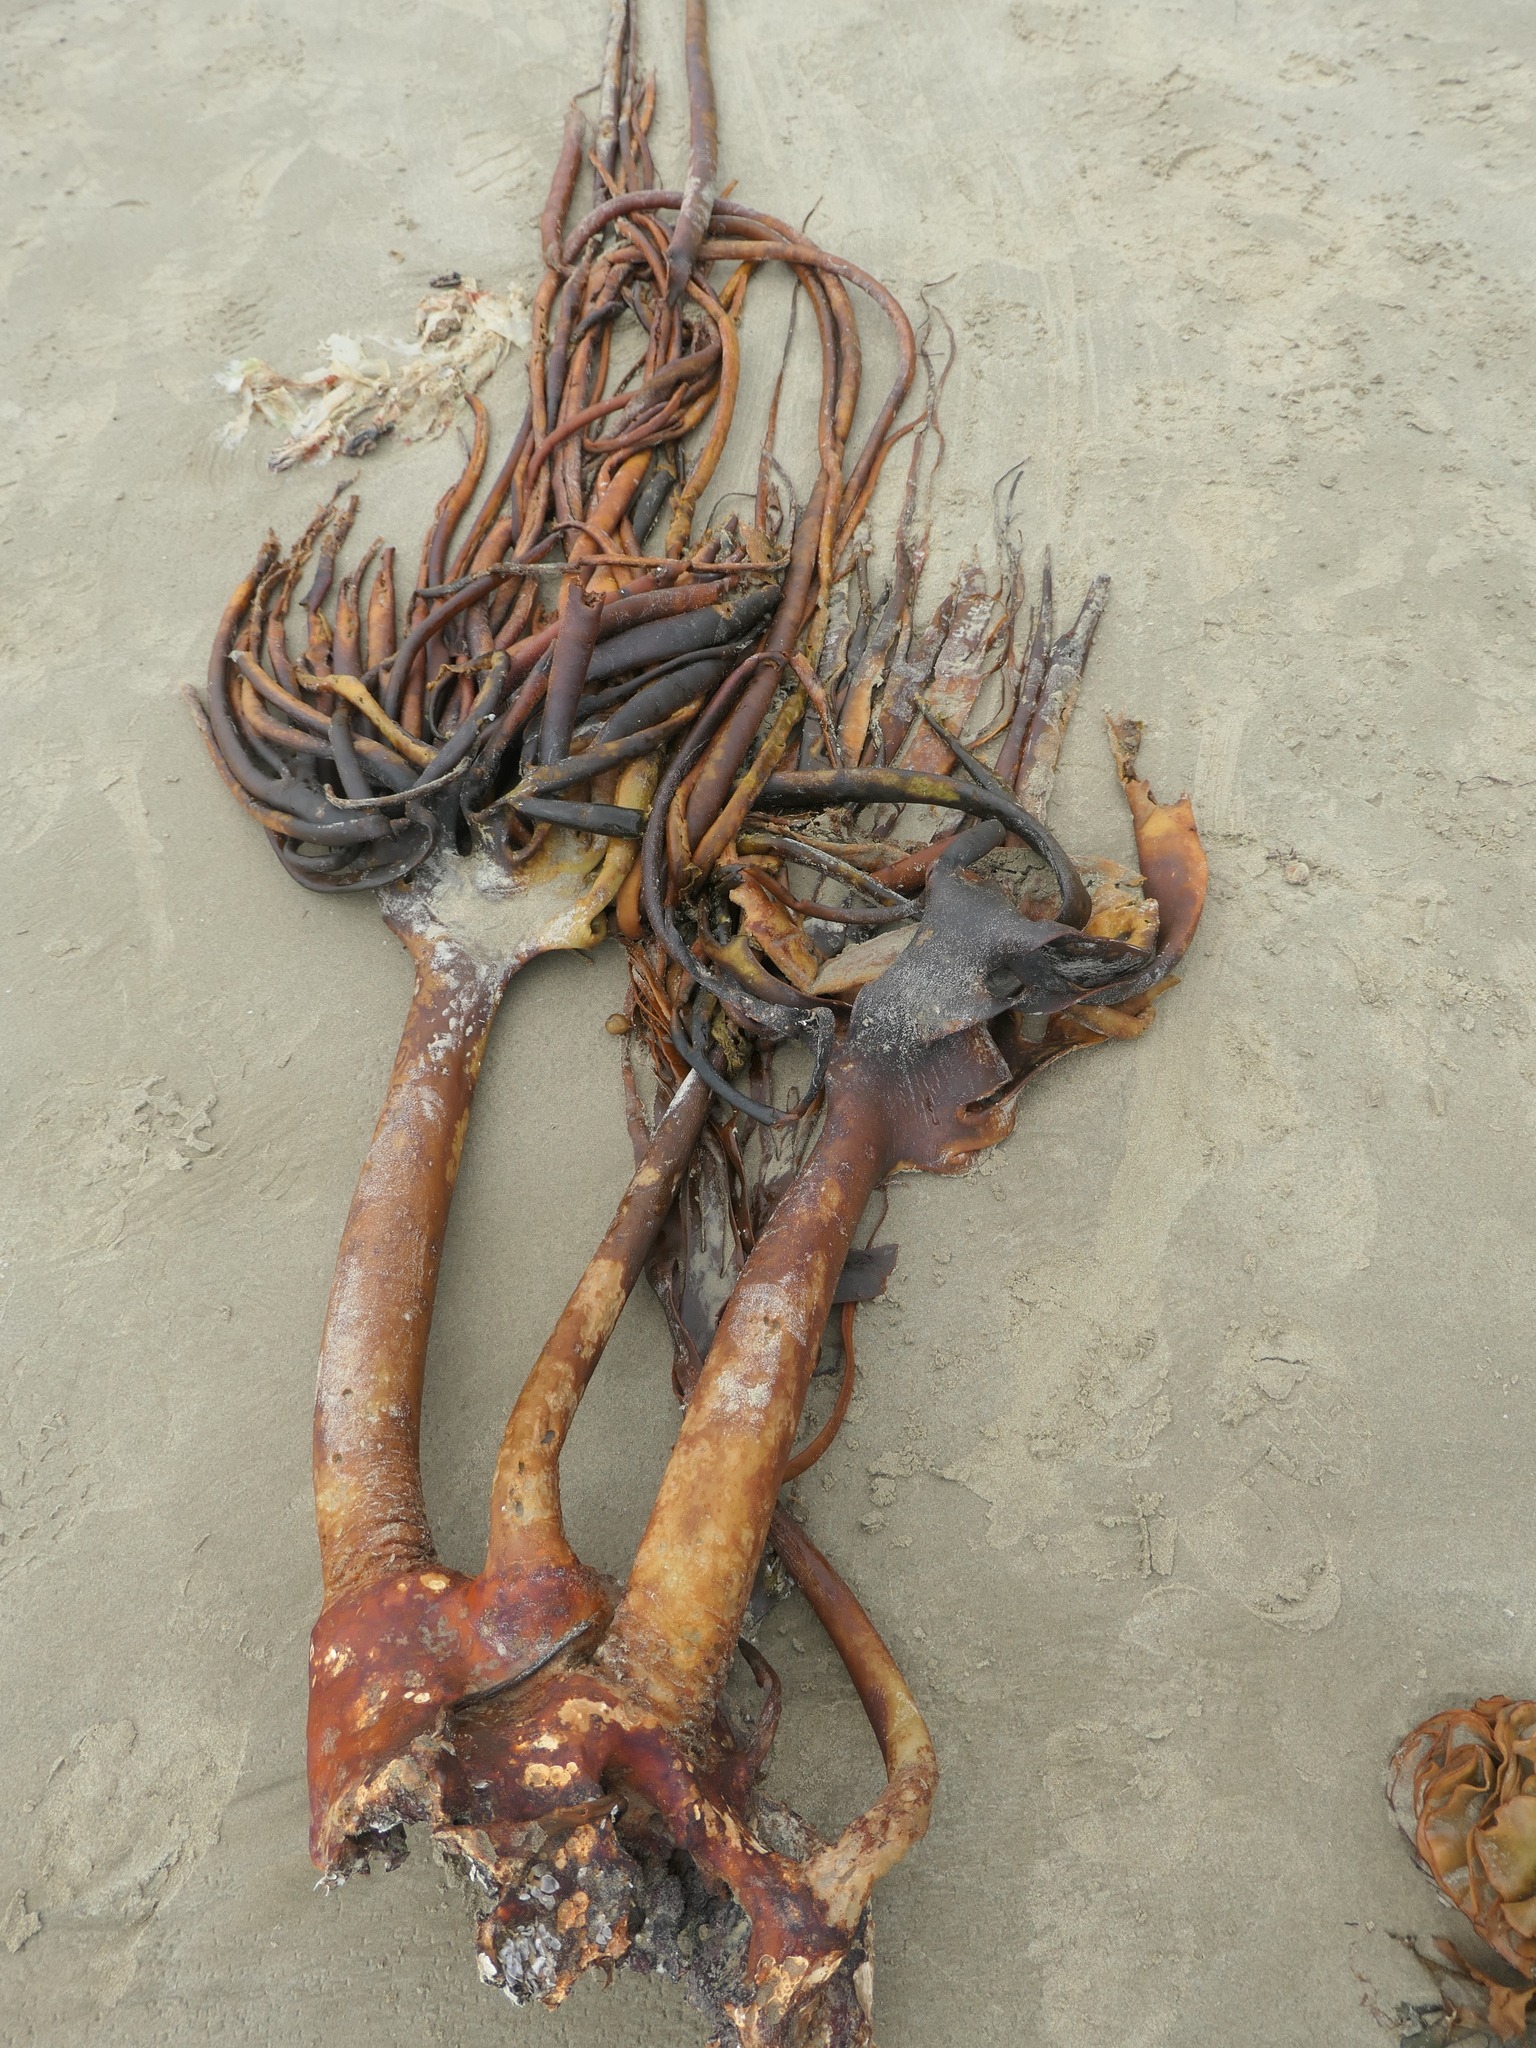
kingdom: Chromista
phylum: Ochrophyta
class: Phaeophyceae
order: Fucales
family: Durvillaeaceae
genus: Durvillaea
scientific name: Durvillaea antarctica
